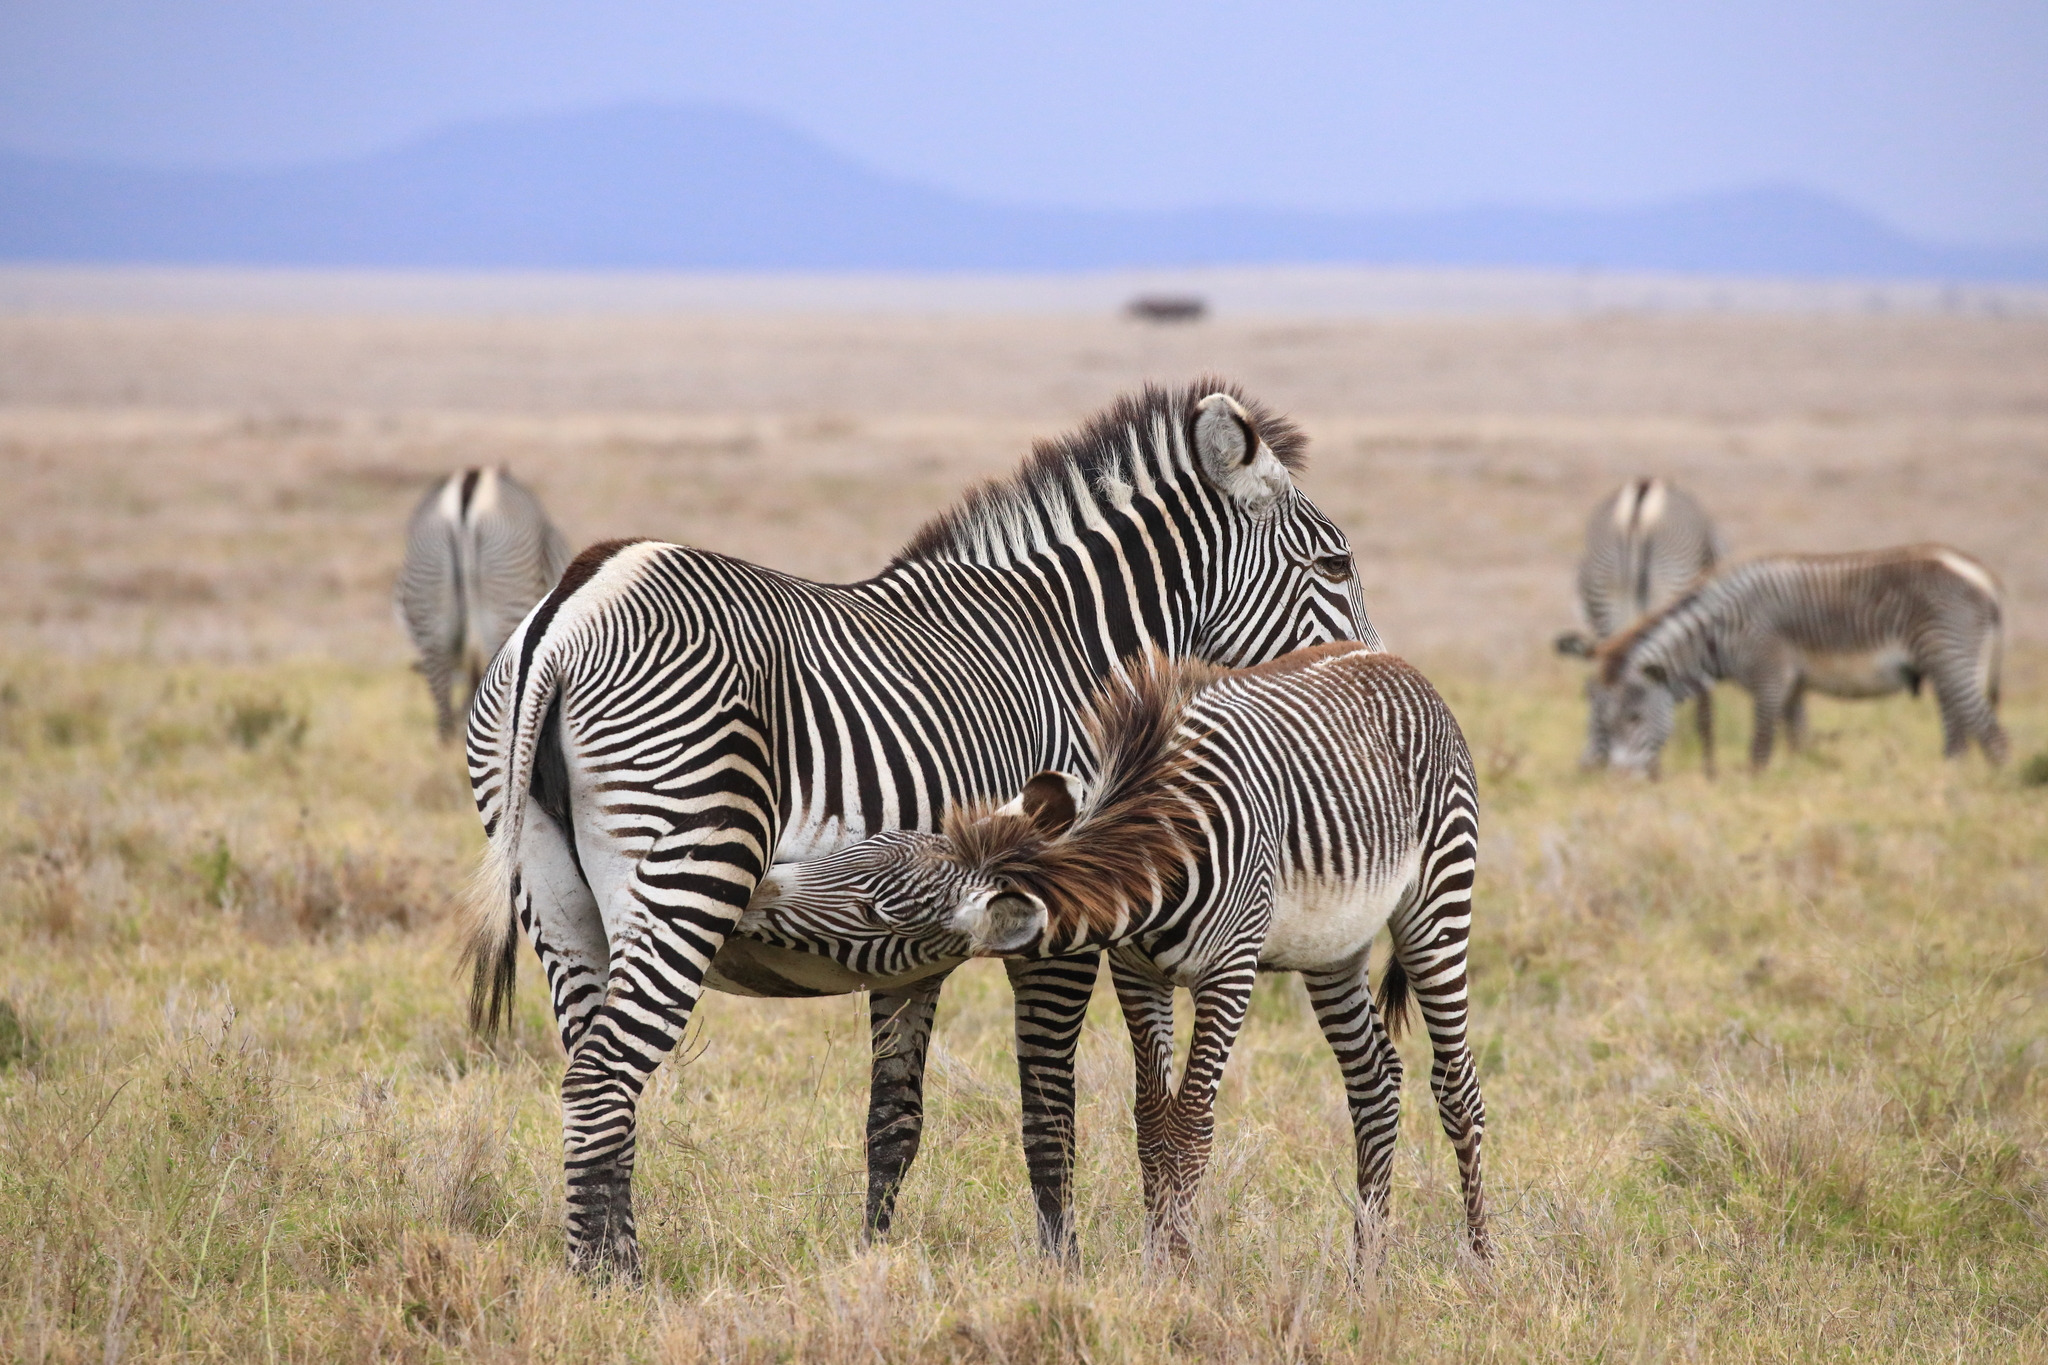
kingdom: Animalia
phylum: Chordata
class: Mammalia
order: Perissodactyla
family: Equidae
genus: Equus
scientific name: Equus grevyi
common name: Grevy's zebra
